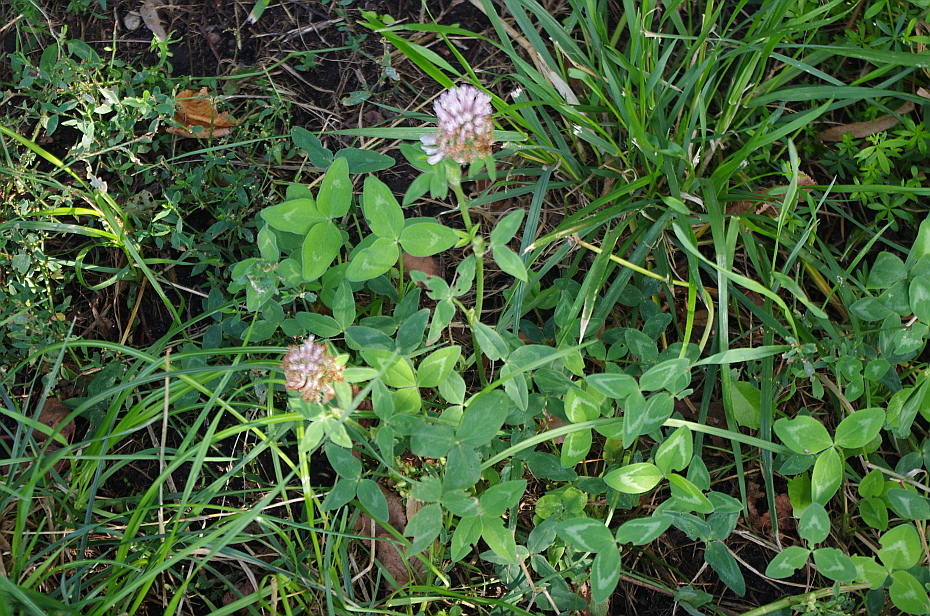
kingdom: Plantae
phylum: Tracheophyta
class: Magnoliopsida
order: Fabales
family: Fabaceae
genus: Trifolium
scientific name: Trifolium pratense
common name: Red clover
